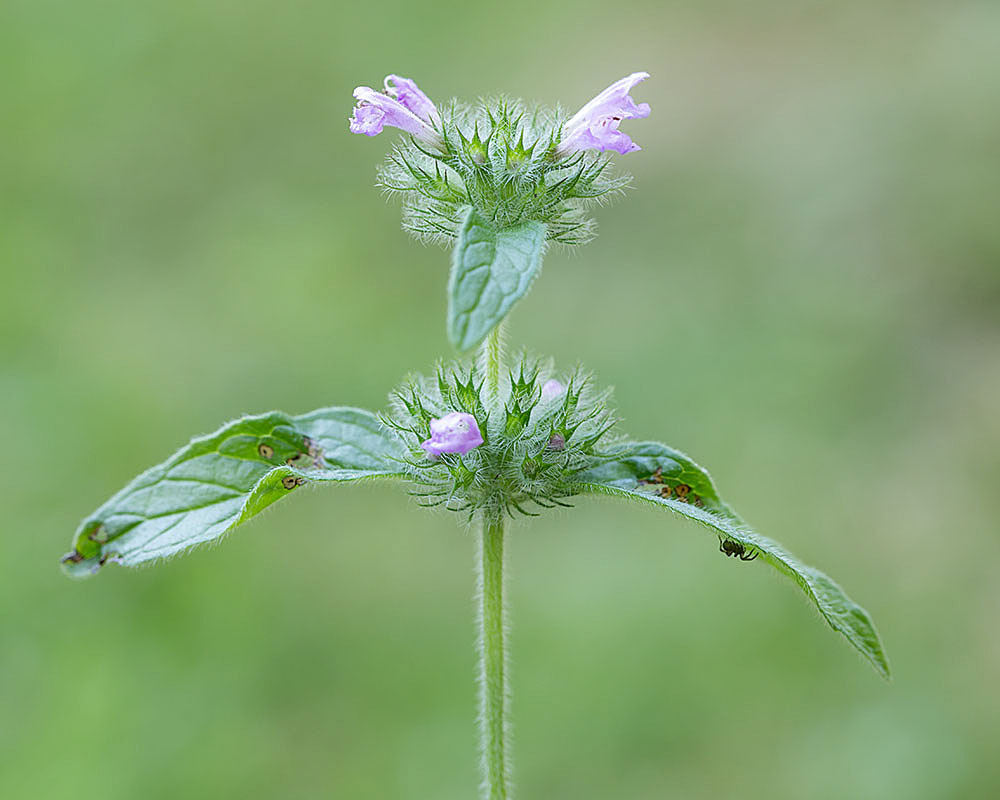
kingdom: Plantae
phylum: Tracheophyta
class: Magnoliopsida
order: Lamiales
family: Lamiaceae
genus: Clinopodium
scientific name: Clinopodium vulgare
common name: Wild basil
